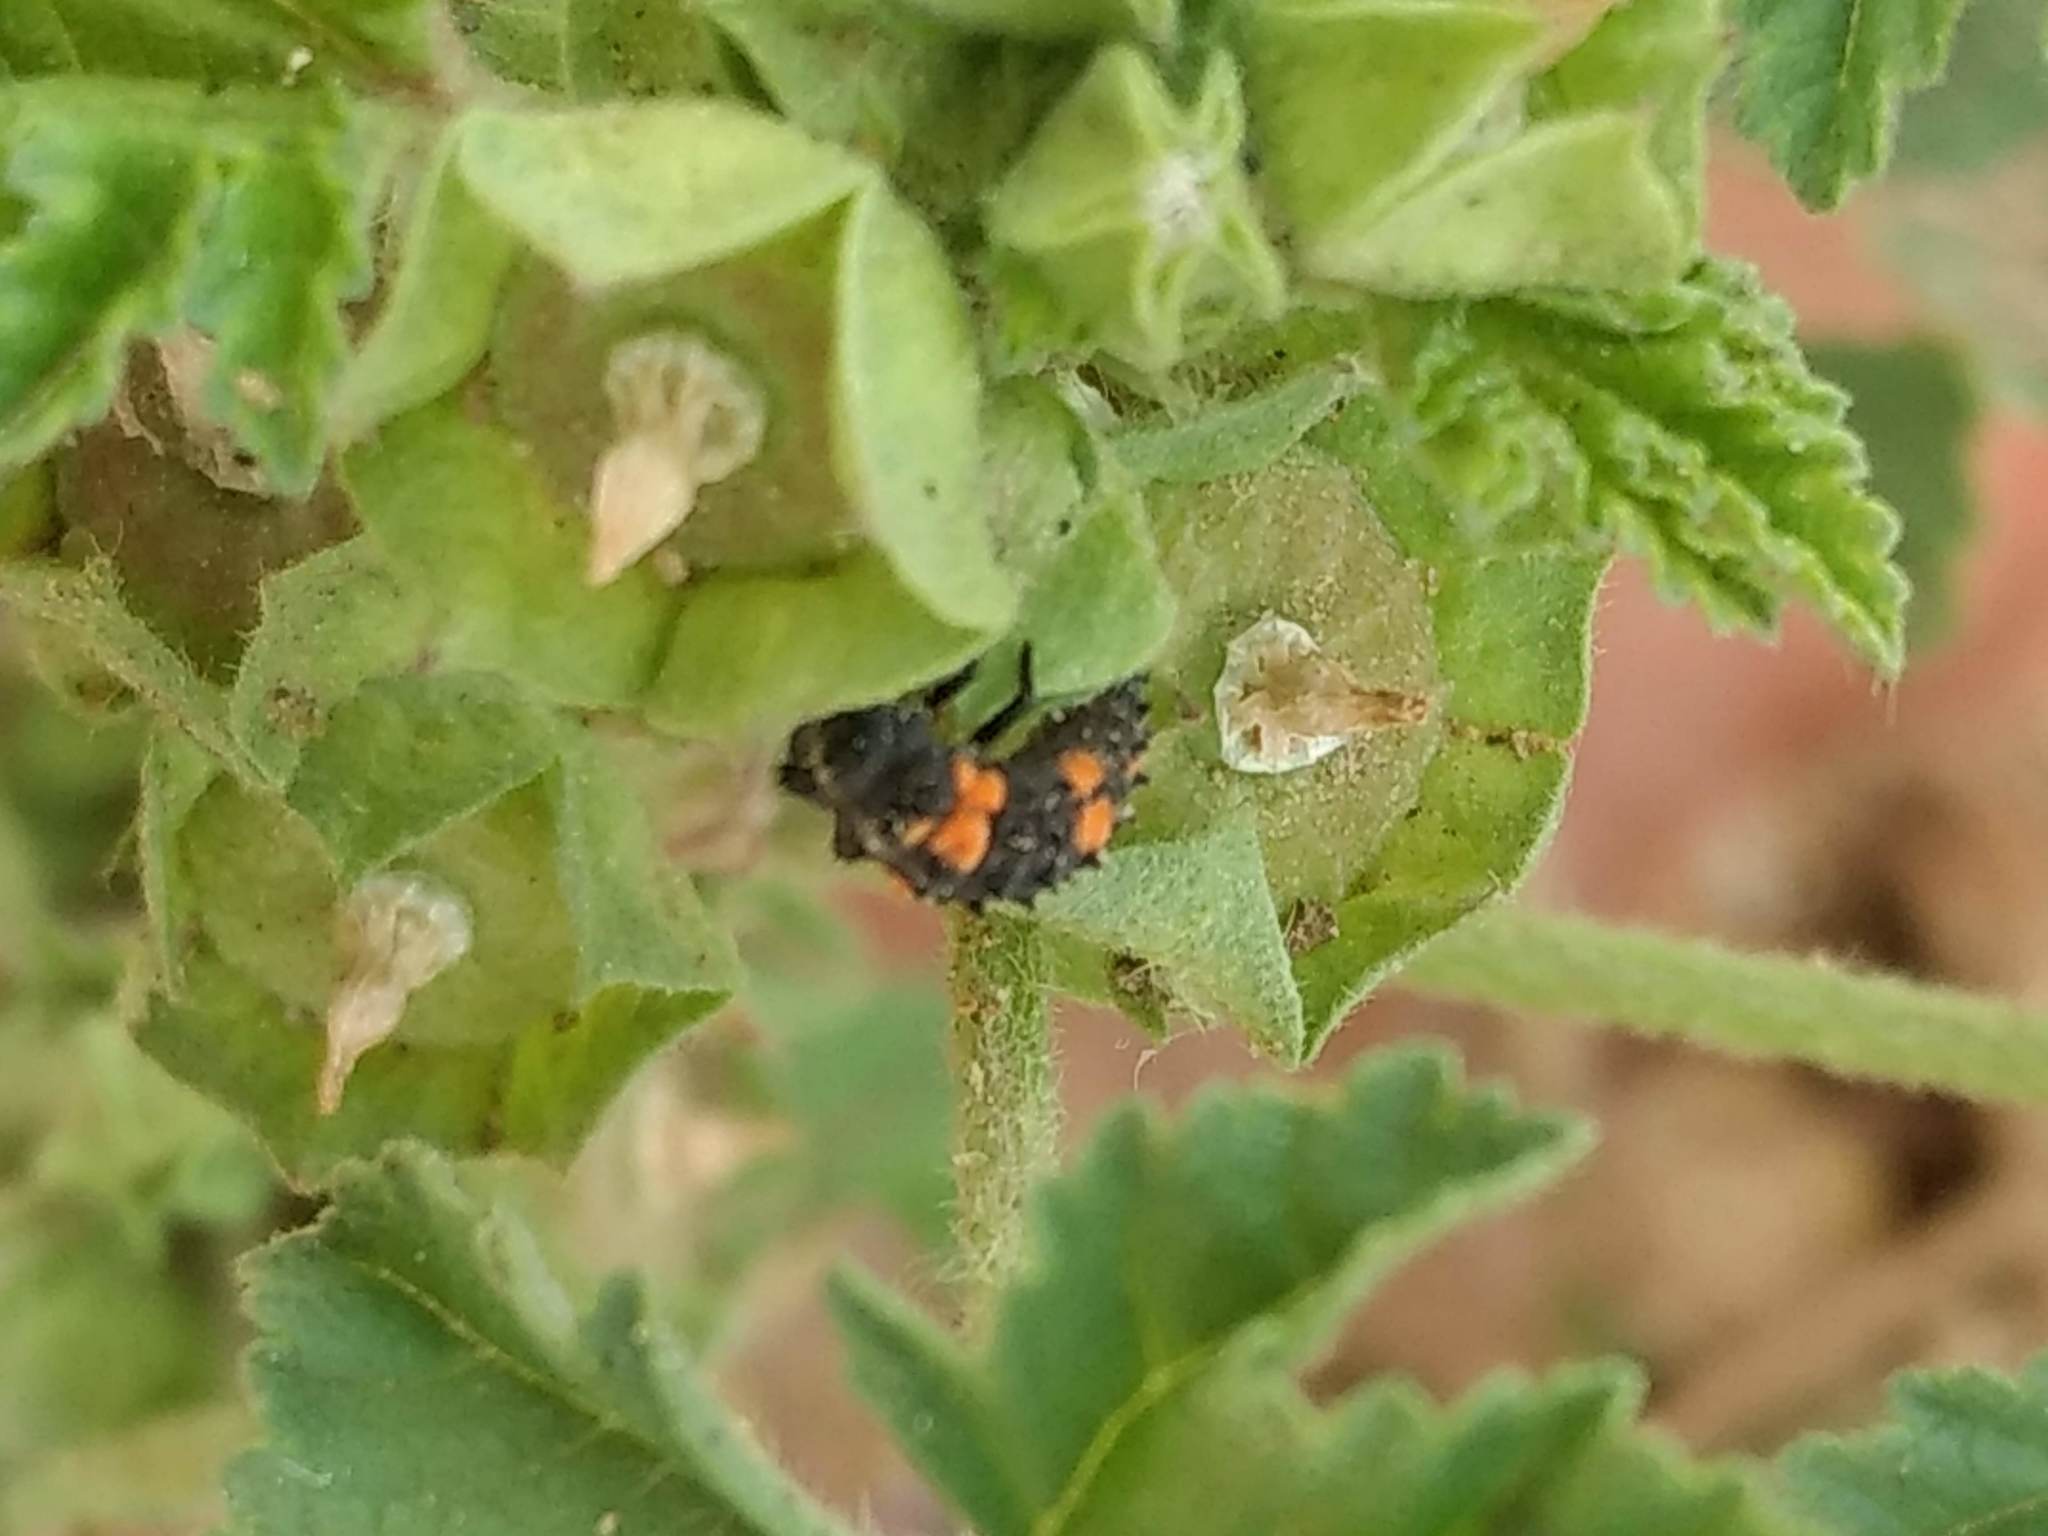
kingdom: Plantae
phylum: Tracheophyta
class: Magnoliopsida
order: Malvales
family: Malvaceae
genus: Malva
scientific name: Malva parviflora
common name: Least mallow
